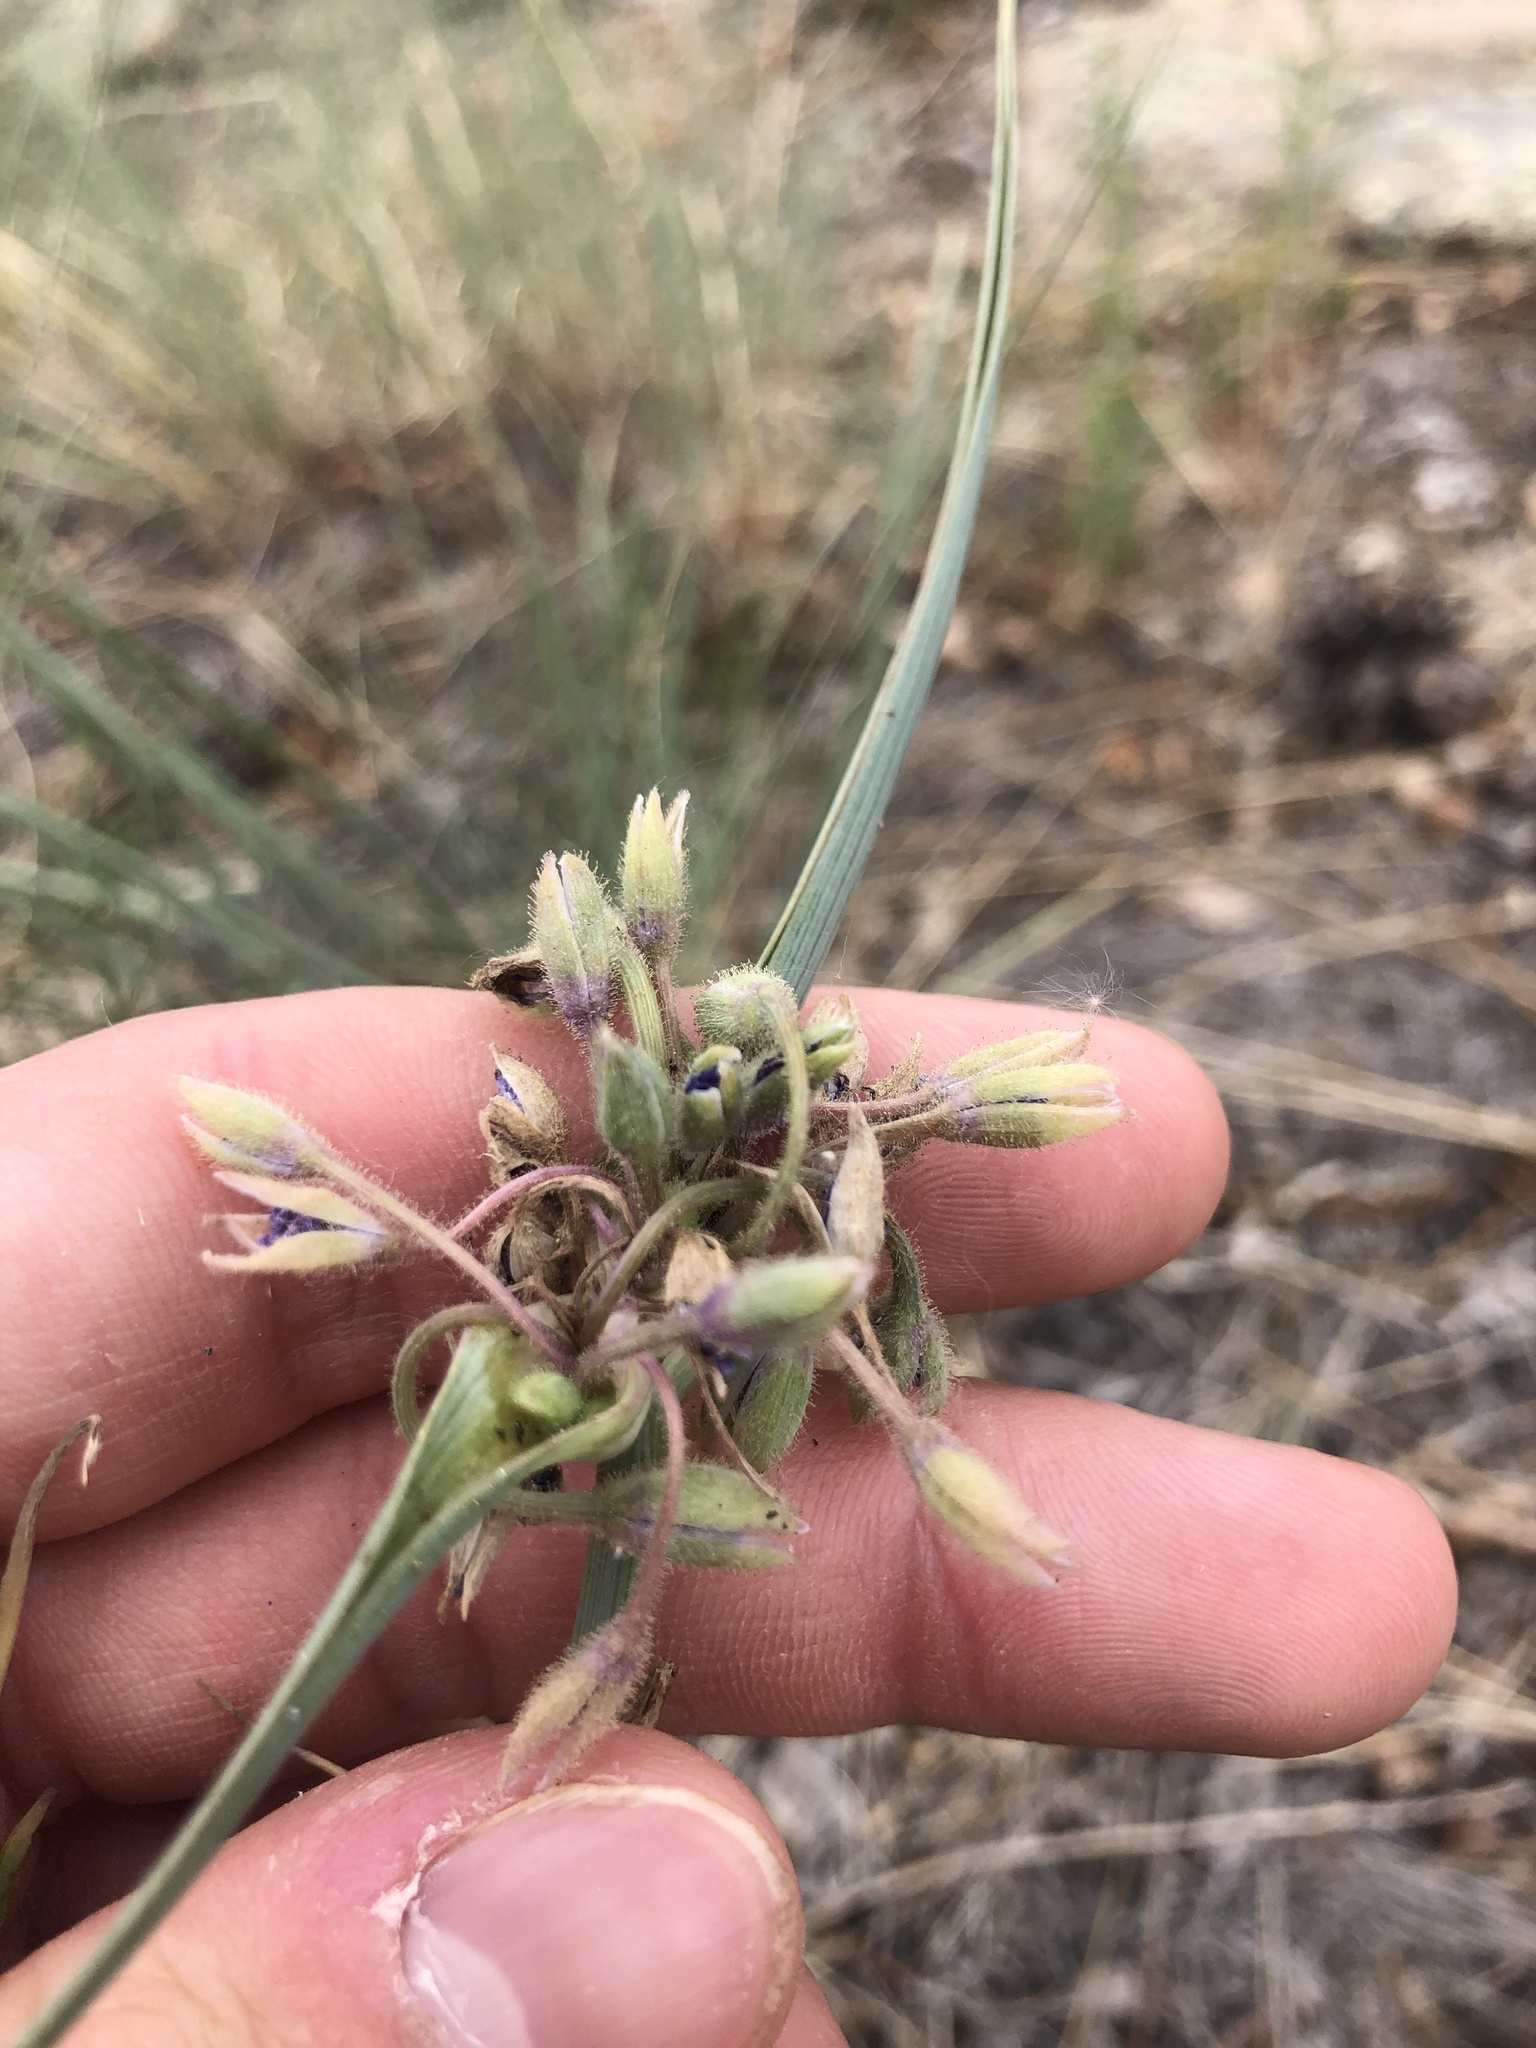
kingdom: Plantae
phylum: Tracheophyta
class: Liliopsida
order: Commelinales
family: Commelinaceae
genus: Tradescantia
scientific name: Tradescantia occidentalis
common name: Prairie spiderwort
